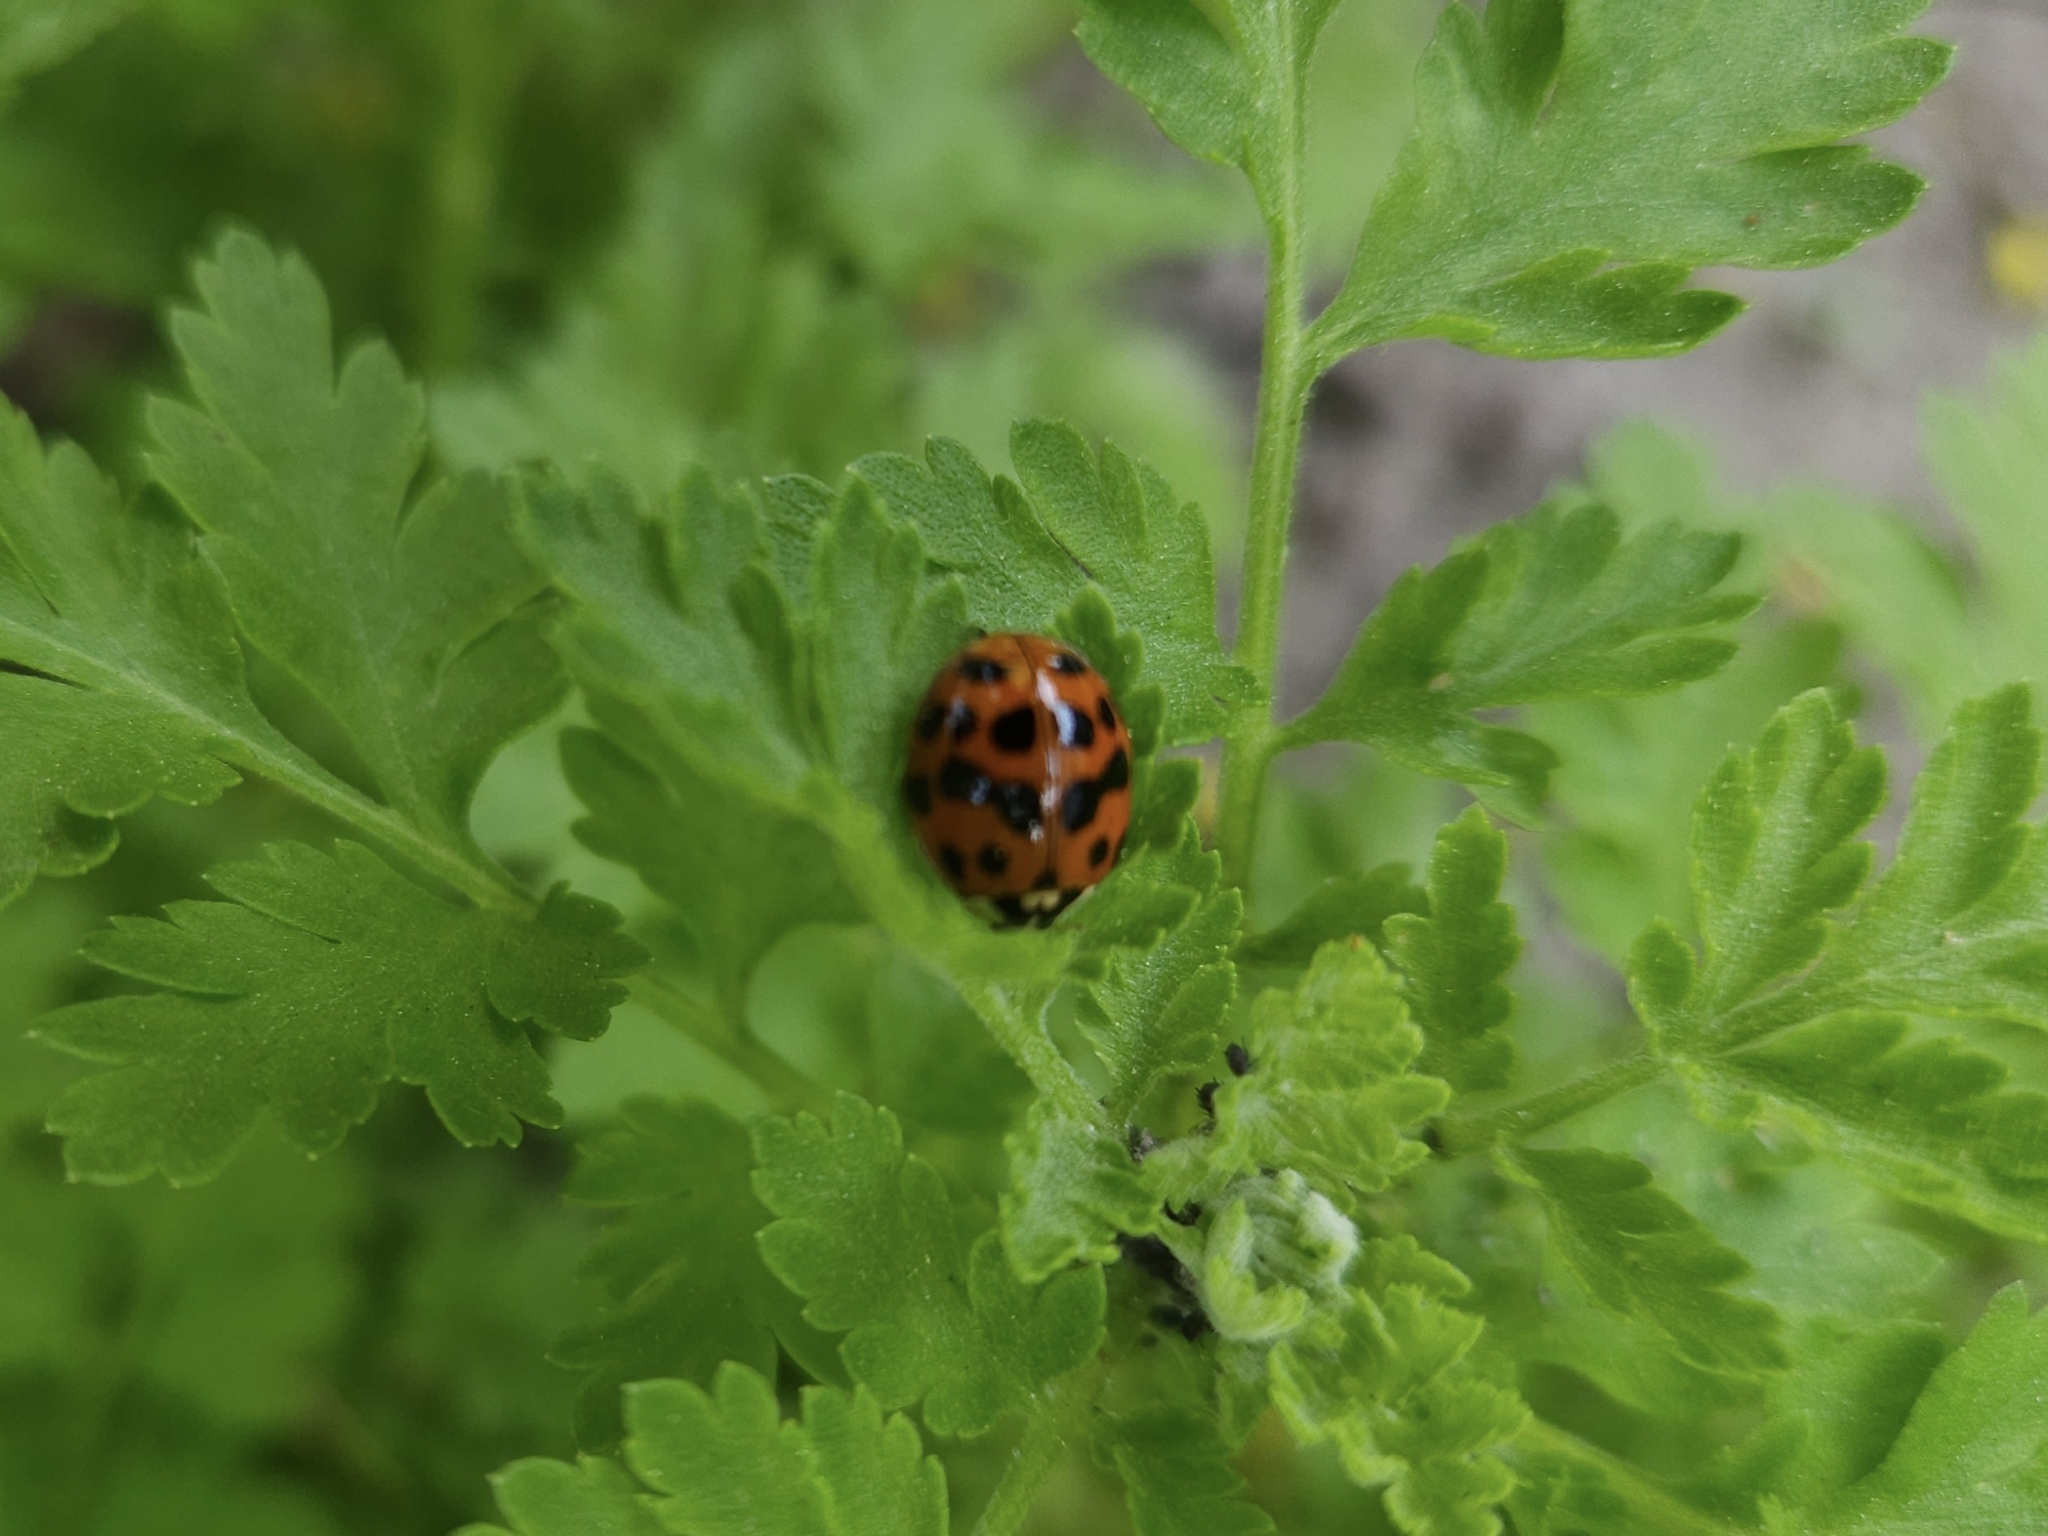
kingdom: Animalia
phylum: Arthropoda
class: Insecta
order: Coleoptera
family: Coccinellidae
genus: Harmonia
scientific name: Harmonia axyridis
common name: Harlequin ladybird
